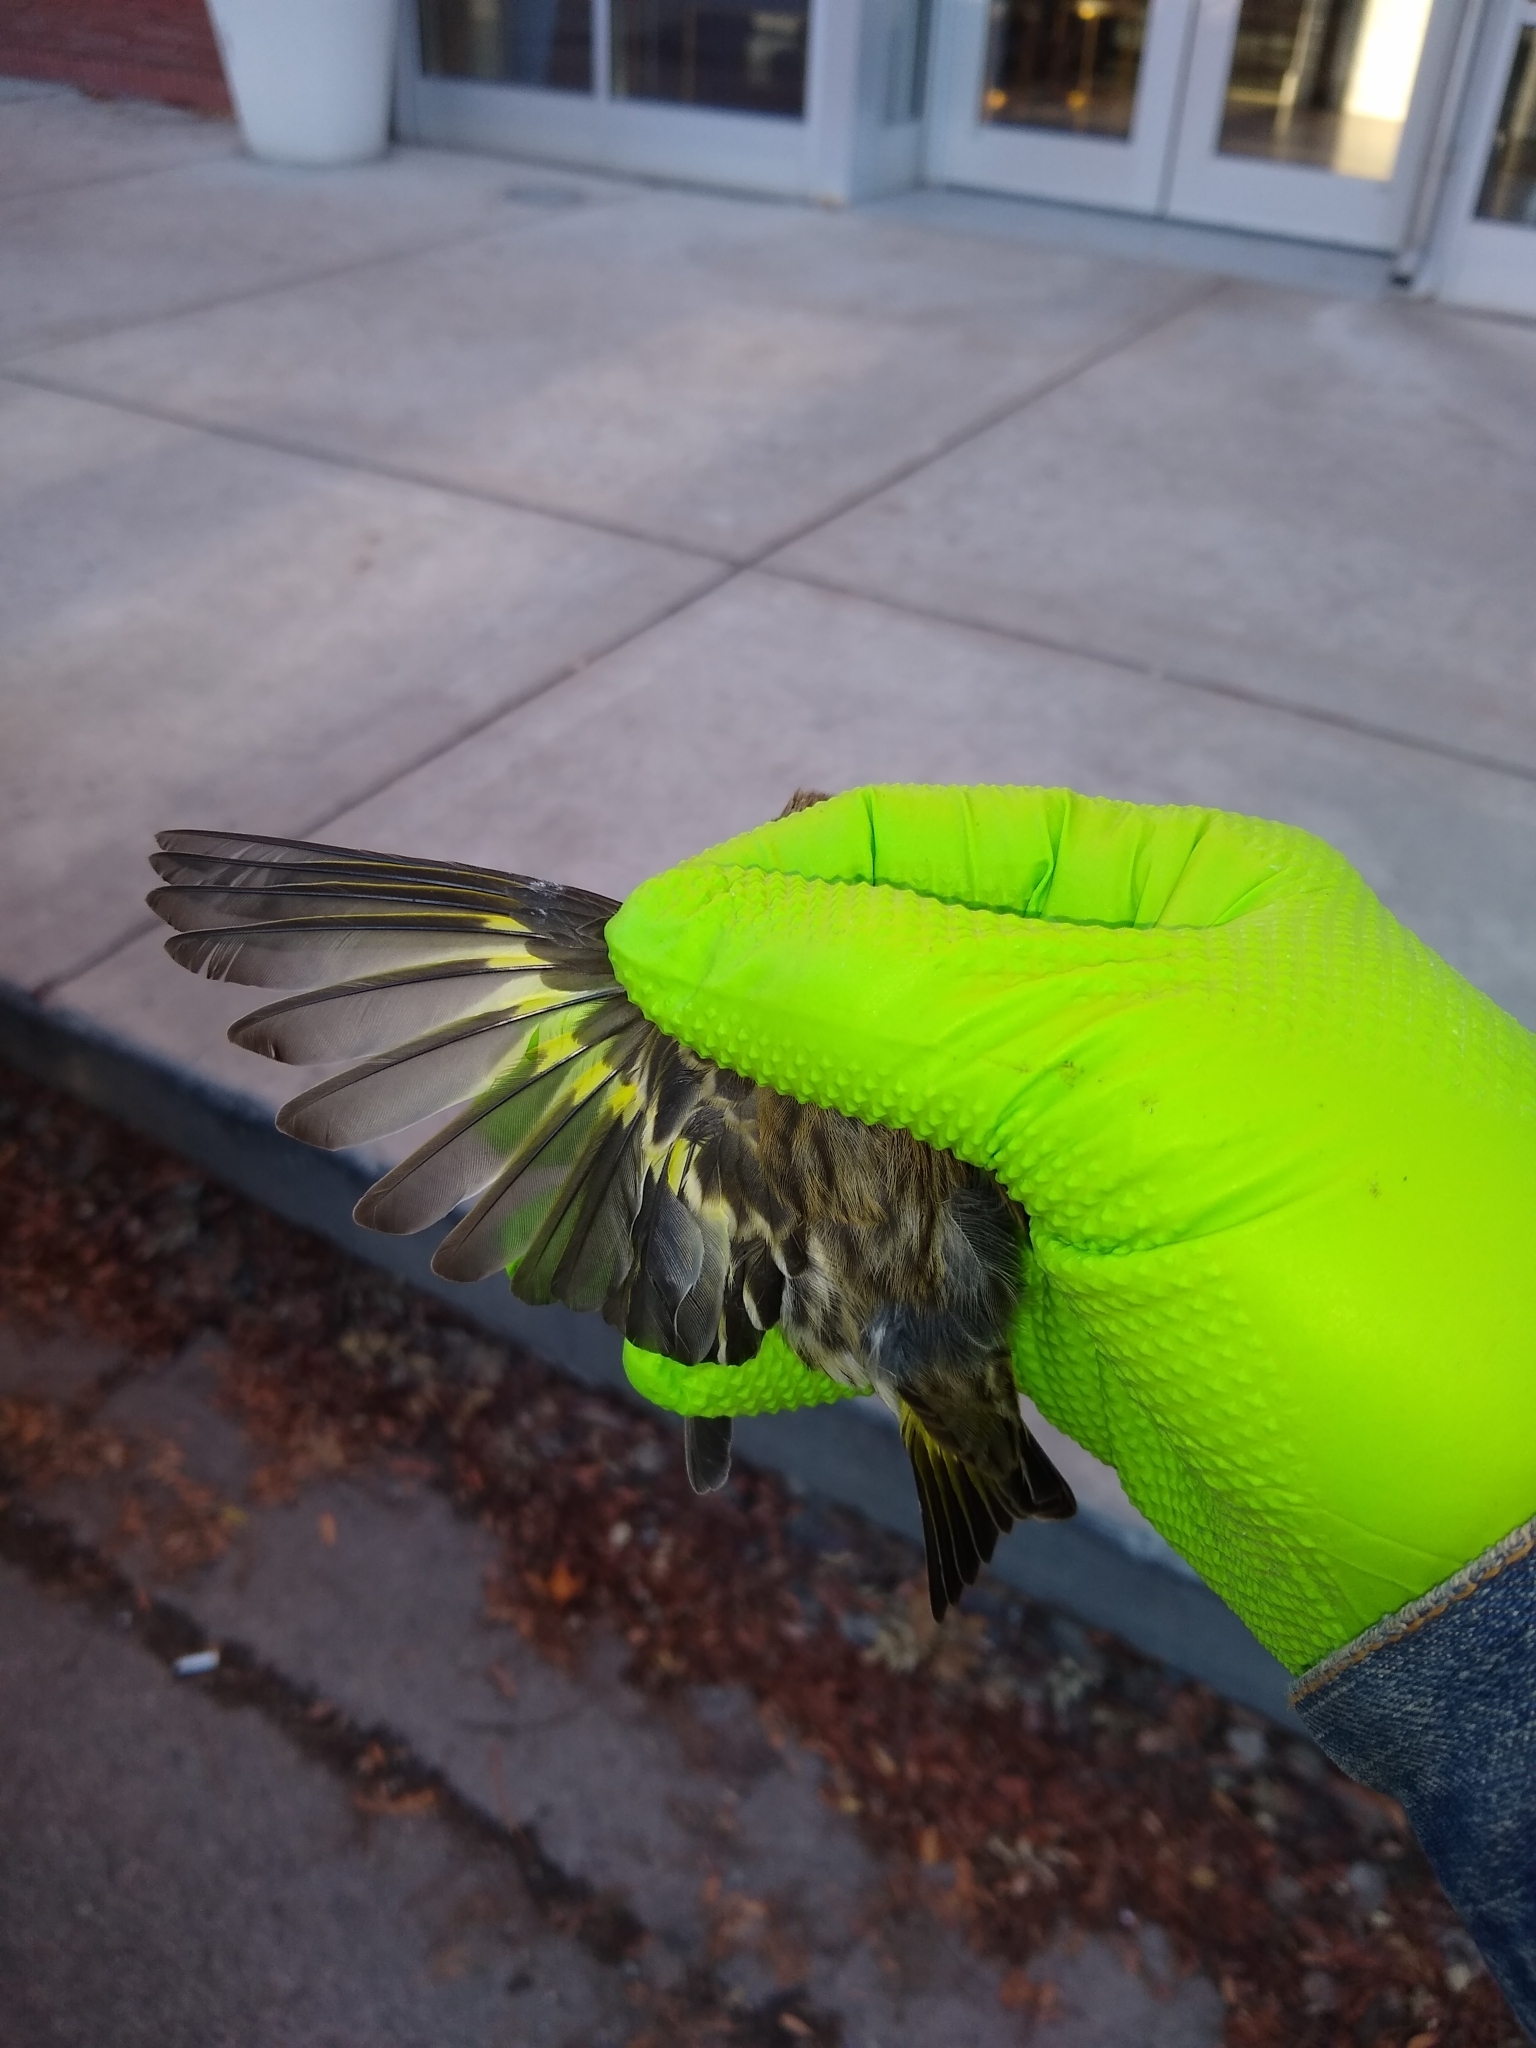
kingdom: Animalia
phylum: Chordata
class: Aves
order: Passeriformes
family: Fringillidae
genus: Spinus
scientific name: Spinus pinus
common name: Pine siskin
